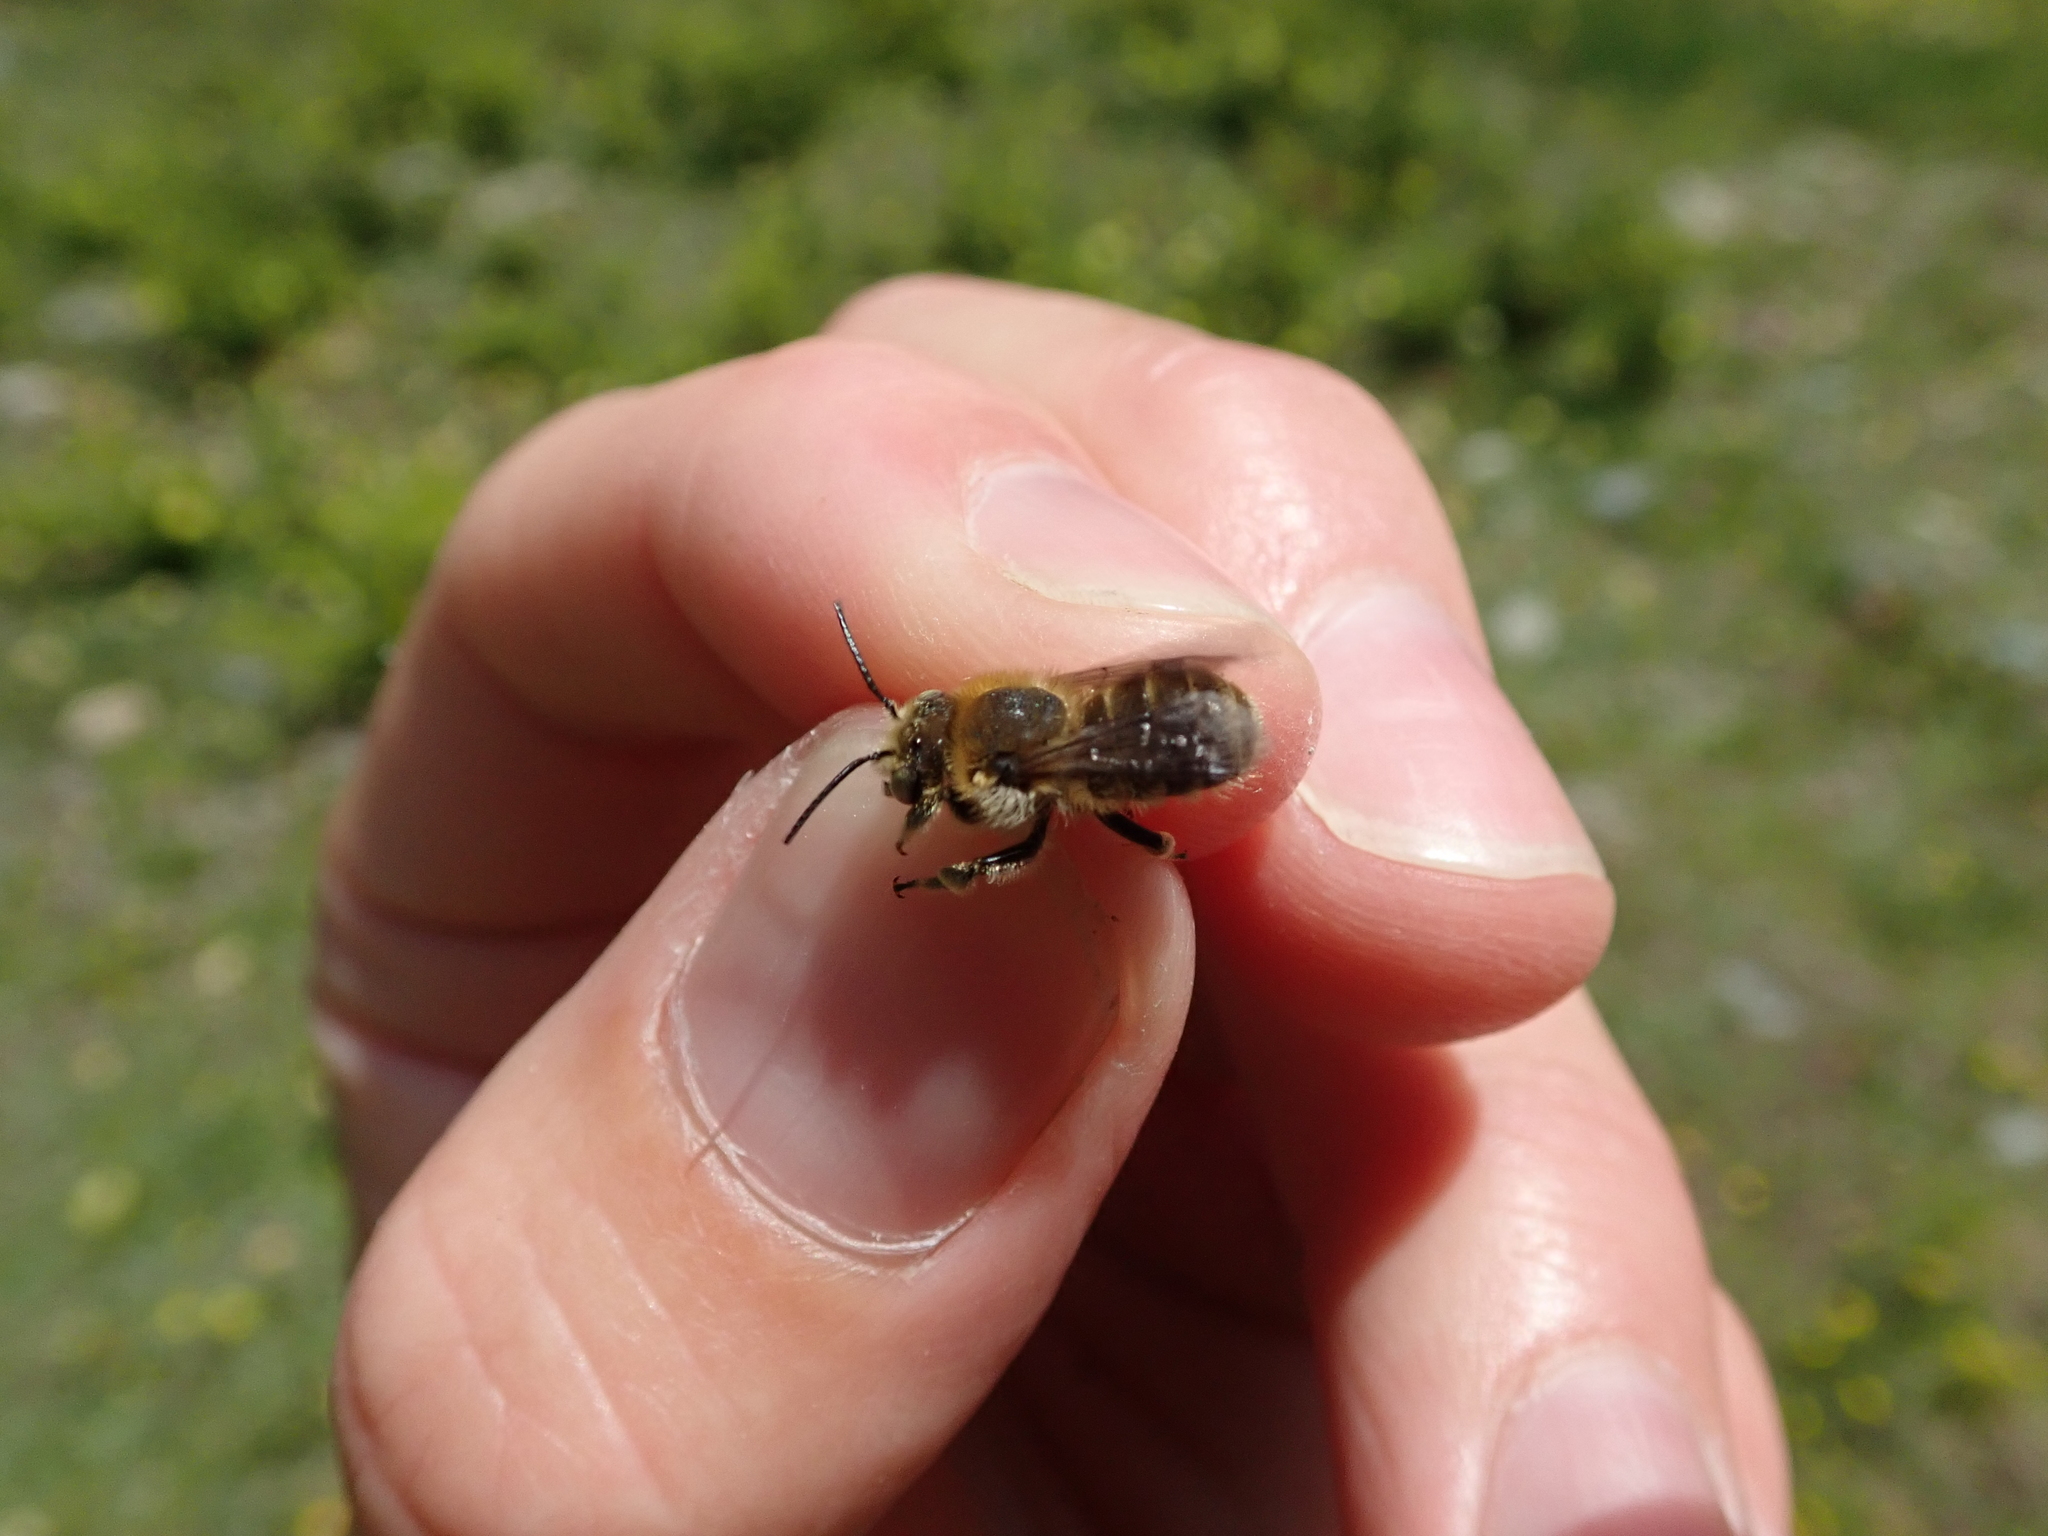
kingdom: Animalia
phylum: Arthropoda
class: Insecta
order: Hymenoptera
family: Megachilidae
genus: Trachusa
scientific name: Trachusa byssina
